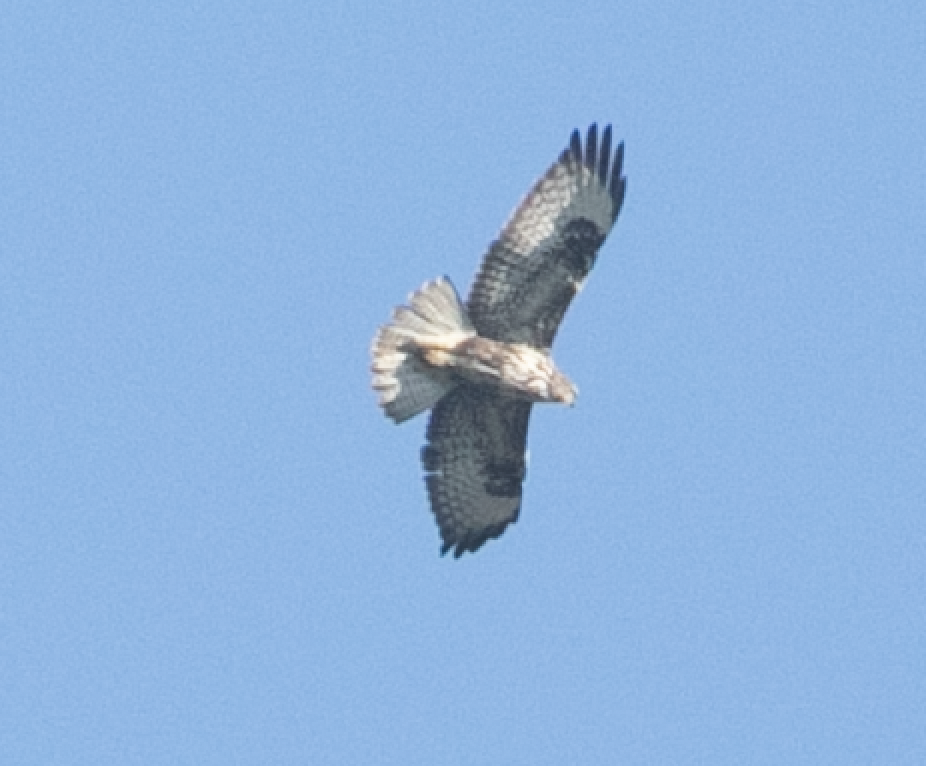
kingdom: Animalia
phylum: Chordata
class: Aves
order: Accipitriformes
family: Accipitridae
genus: Buteo
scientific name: Buteo buteo
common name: Common buzzard
